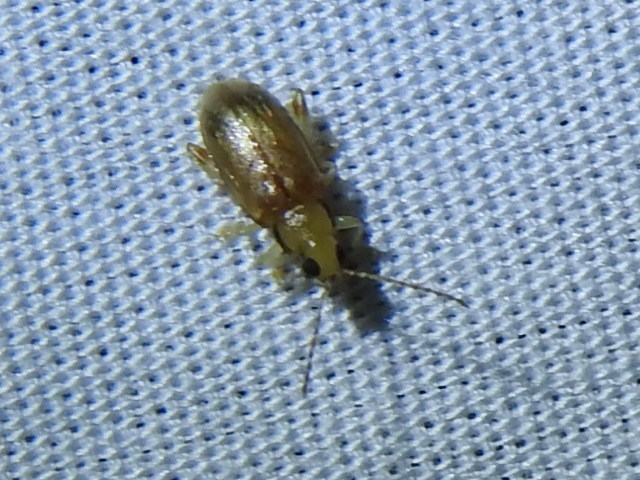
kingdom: Animalia
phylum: Arthropoda
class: Insecta
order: Coleoptera
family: Chrysomelidae
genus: Systena
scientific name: Systena marginalis
